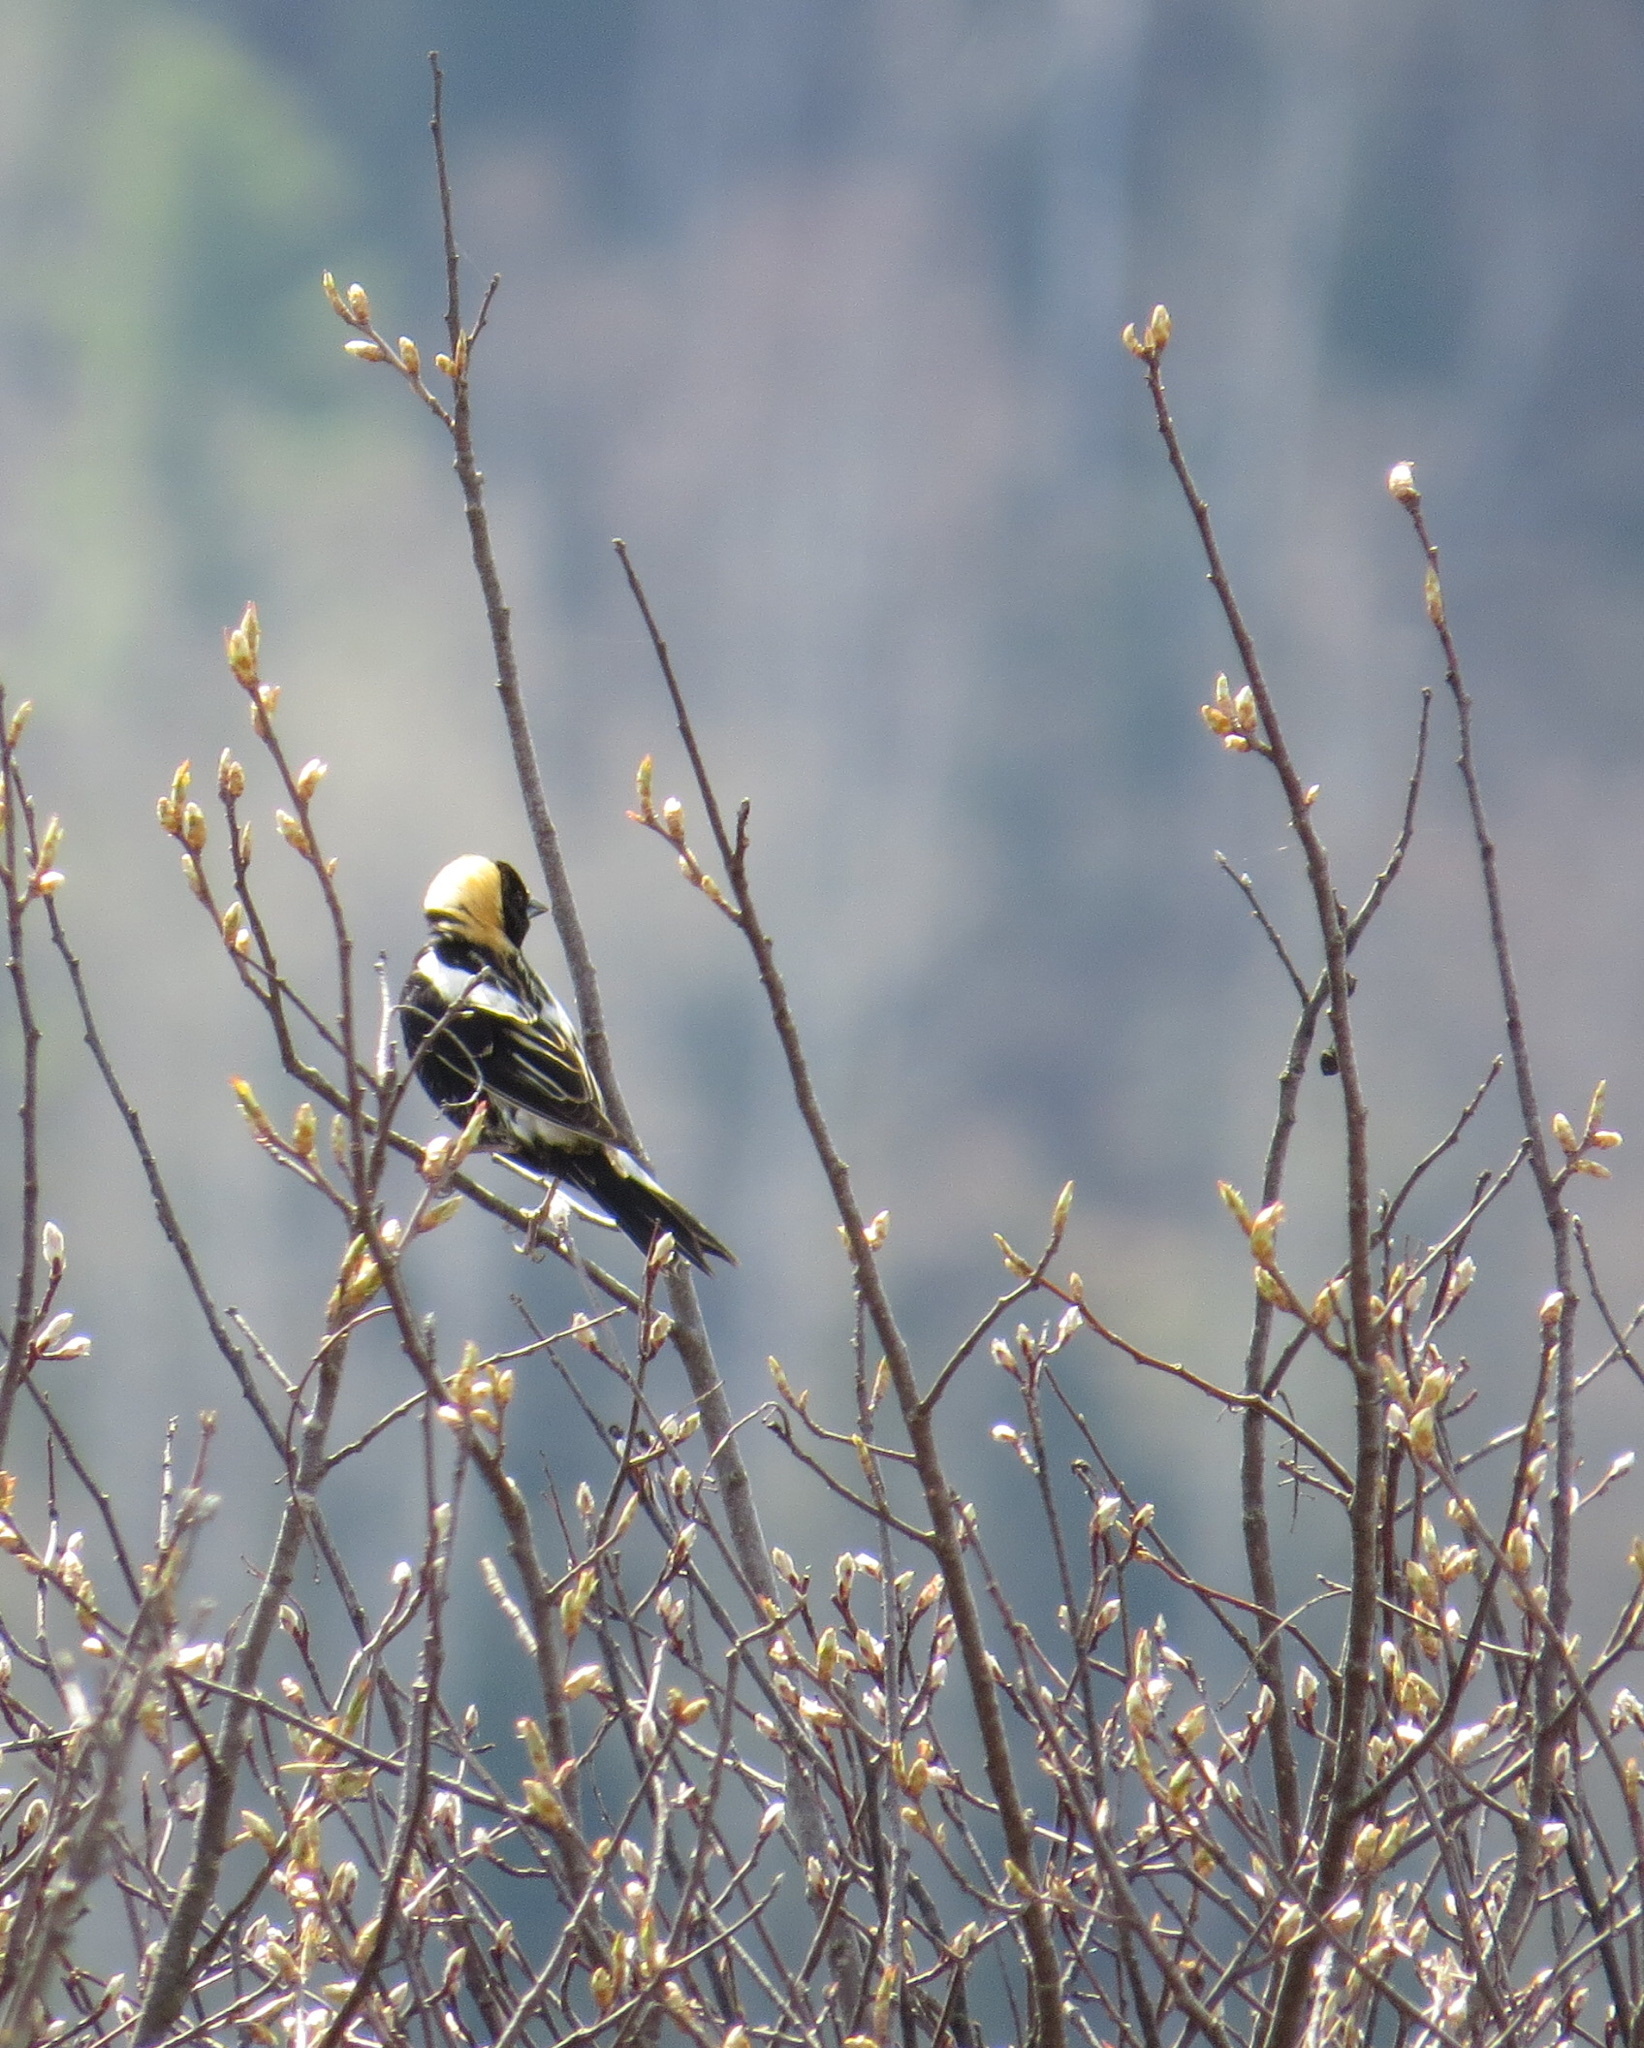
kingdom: Animalia
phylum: Chordata
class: Aves
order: Passeriformes
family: Icteridae
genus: Dolichonyx
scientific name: Dolichonyx oryzivorus
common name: Bobolink
